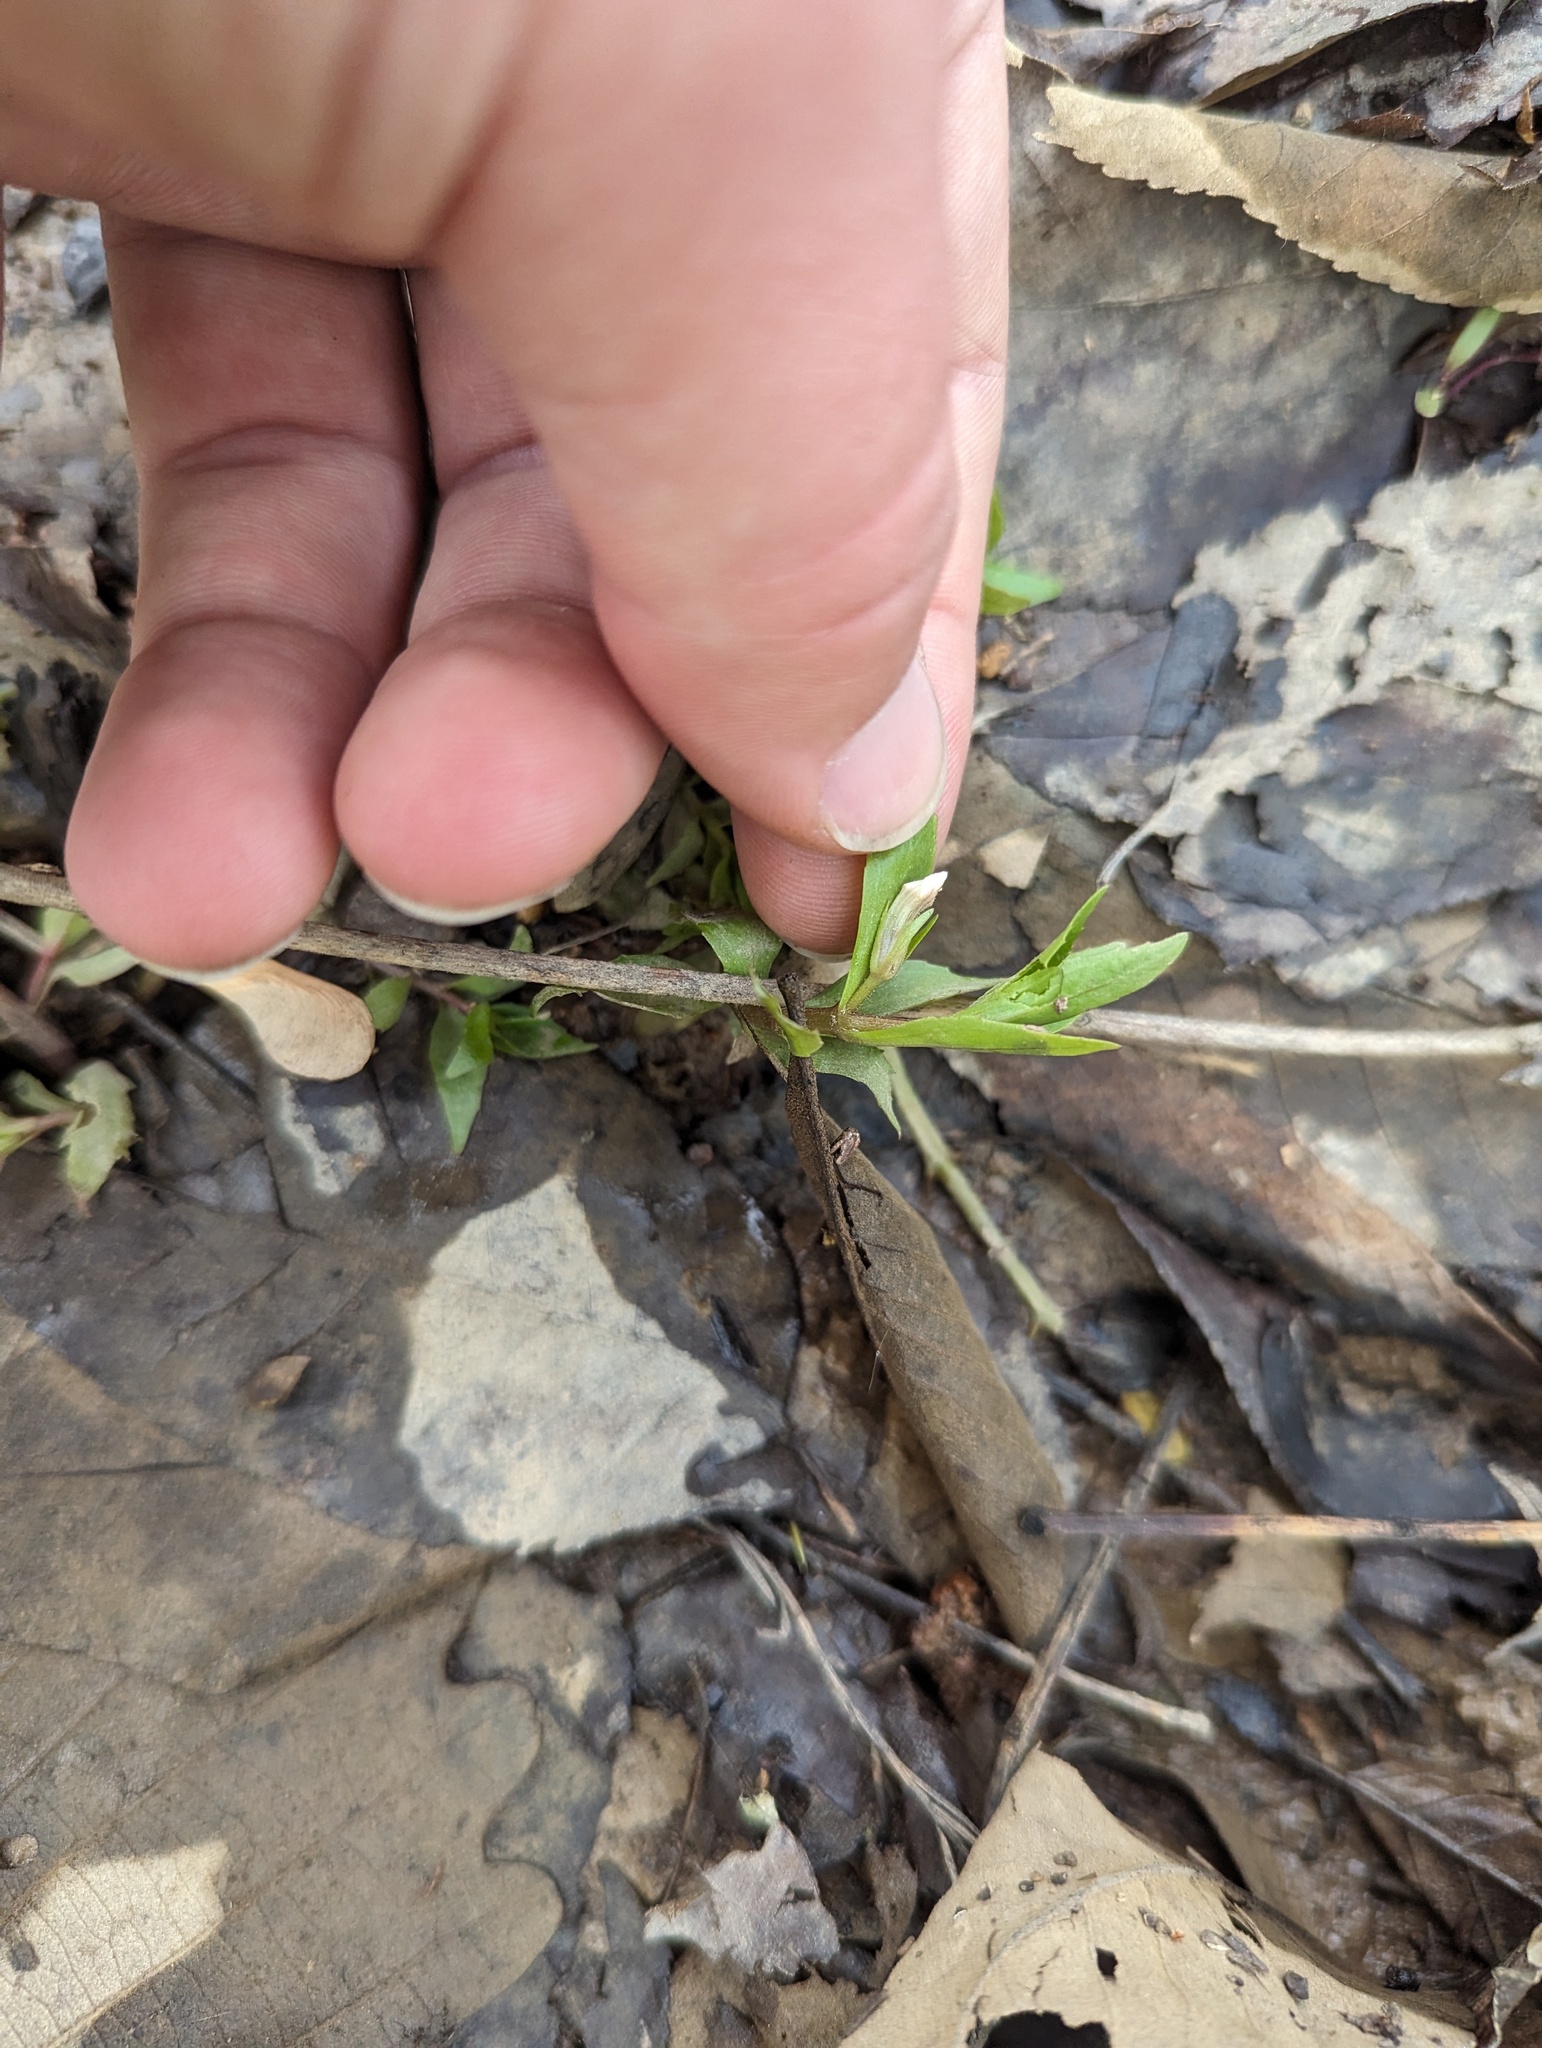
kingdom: Plantae
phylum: Tracheophyta
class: Magnoliopsida
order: Lamiales
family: Plantaginaceae
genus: Gratiola
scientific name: Gratiola virginiana
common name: Roundfruit hedgehyssop
